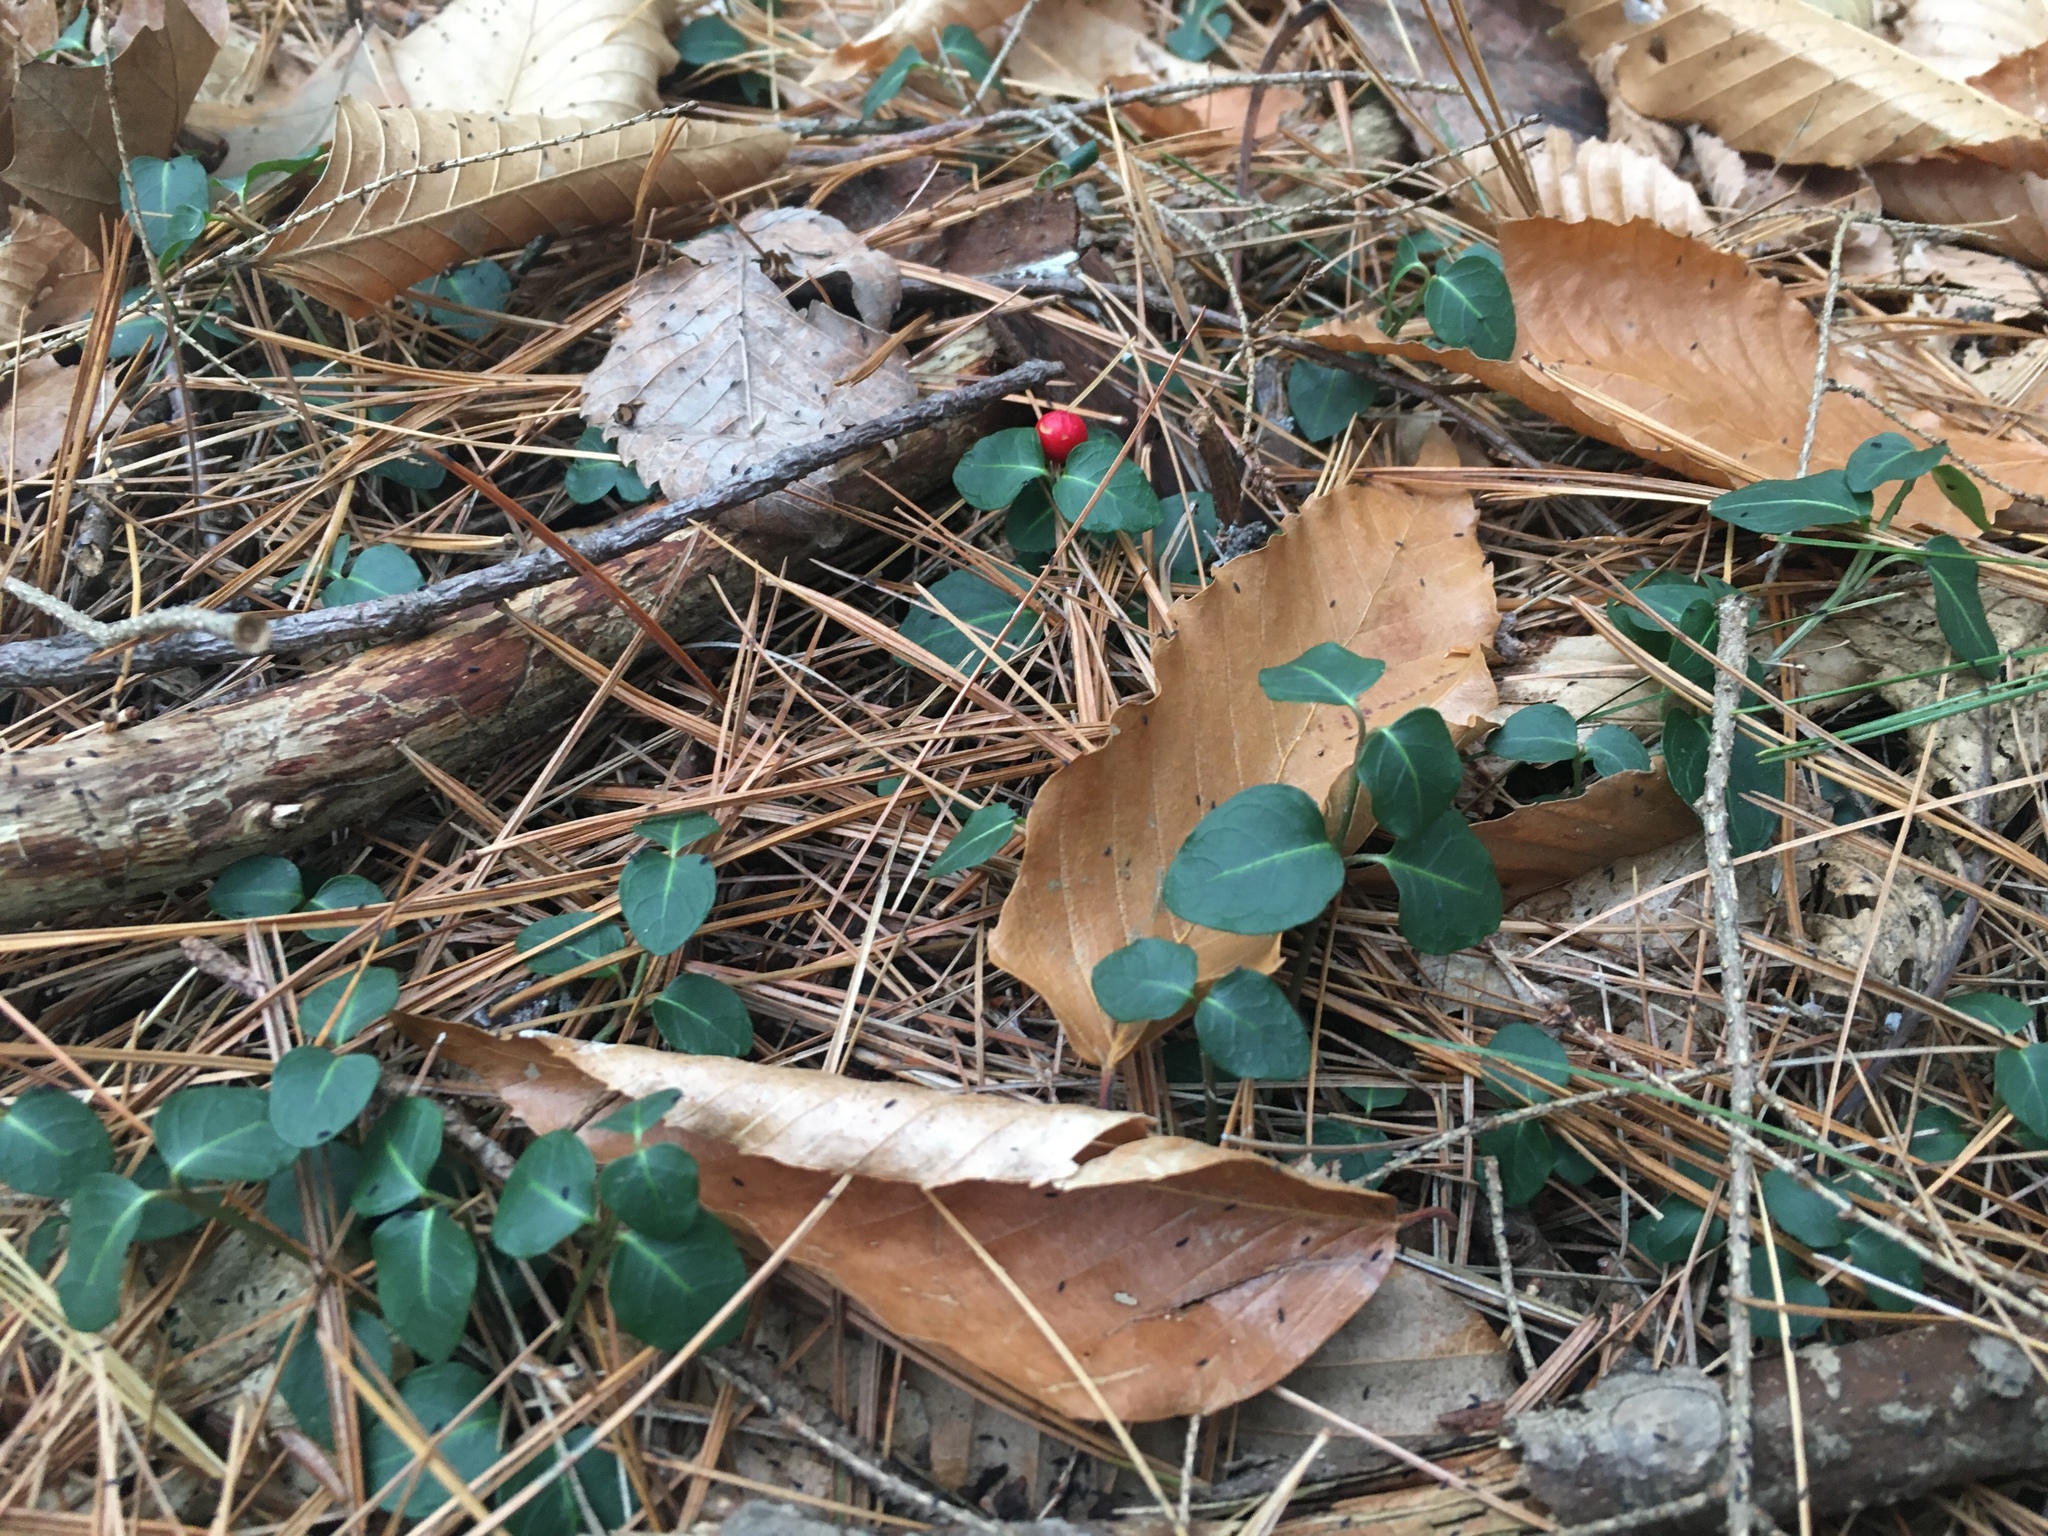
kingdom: Plantae
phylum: Tracheophyta
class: Magnoliopsida
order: Gentianales
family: Rubiaceae
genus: Mitchella
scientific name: Mitchella repens
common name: Partridge-berry
